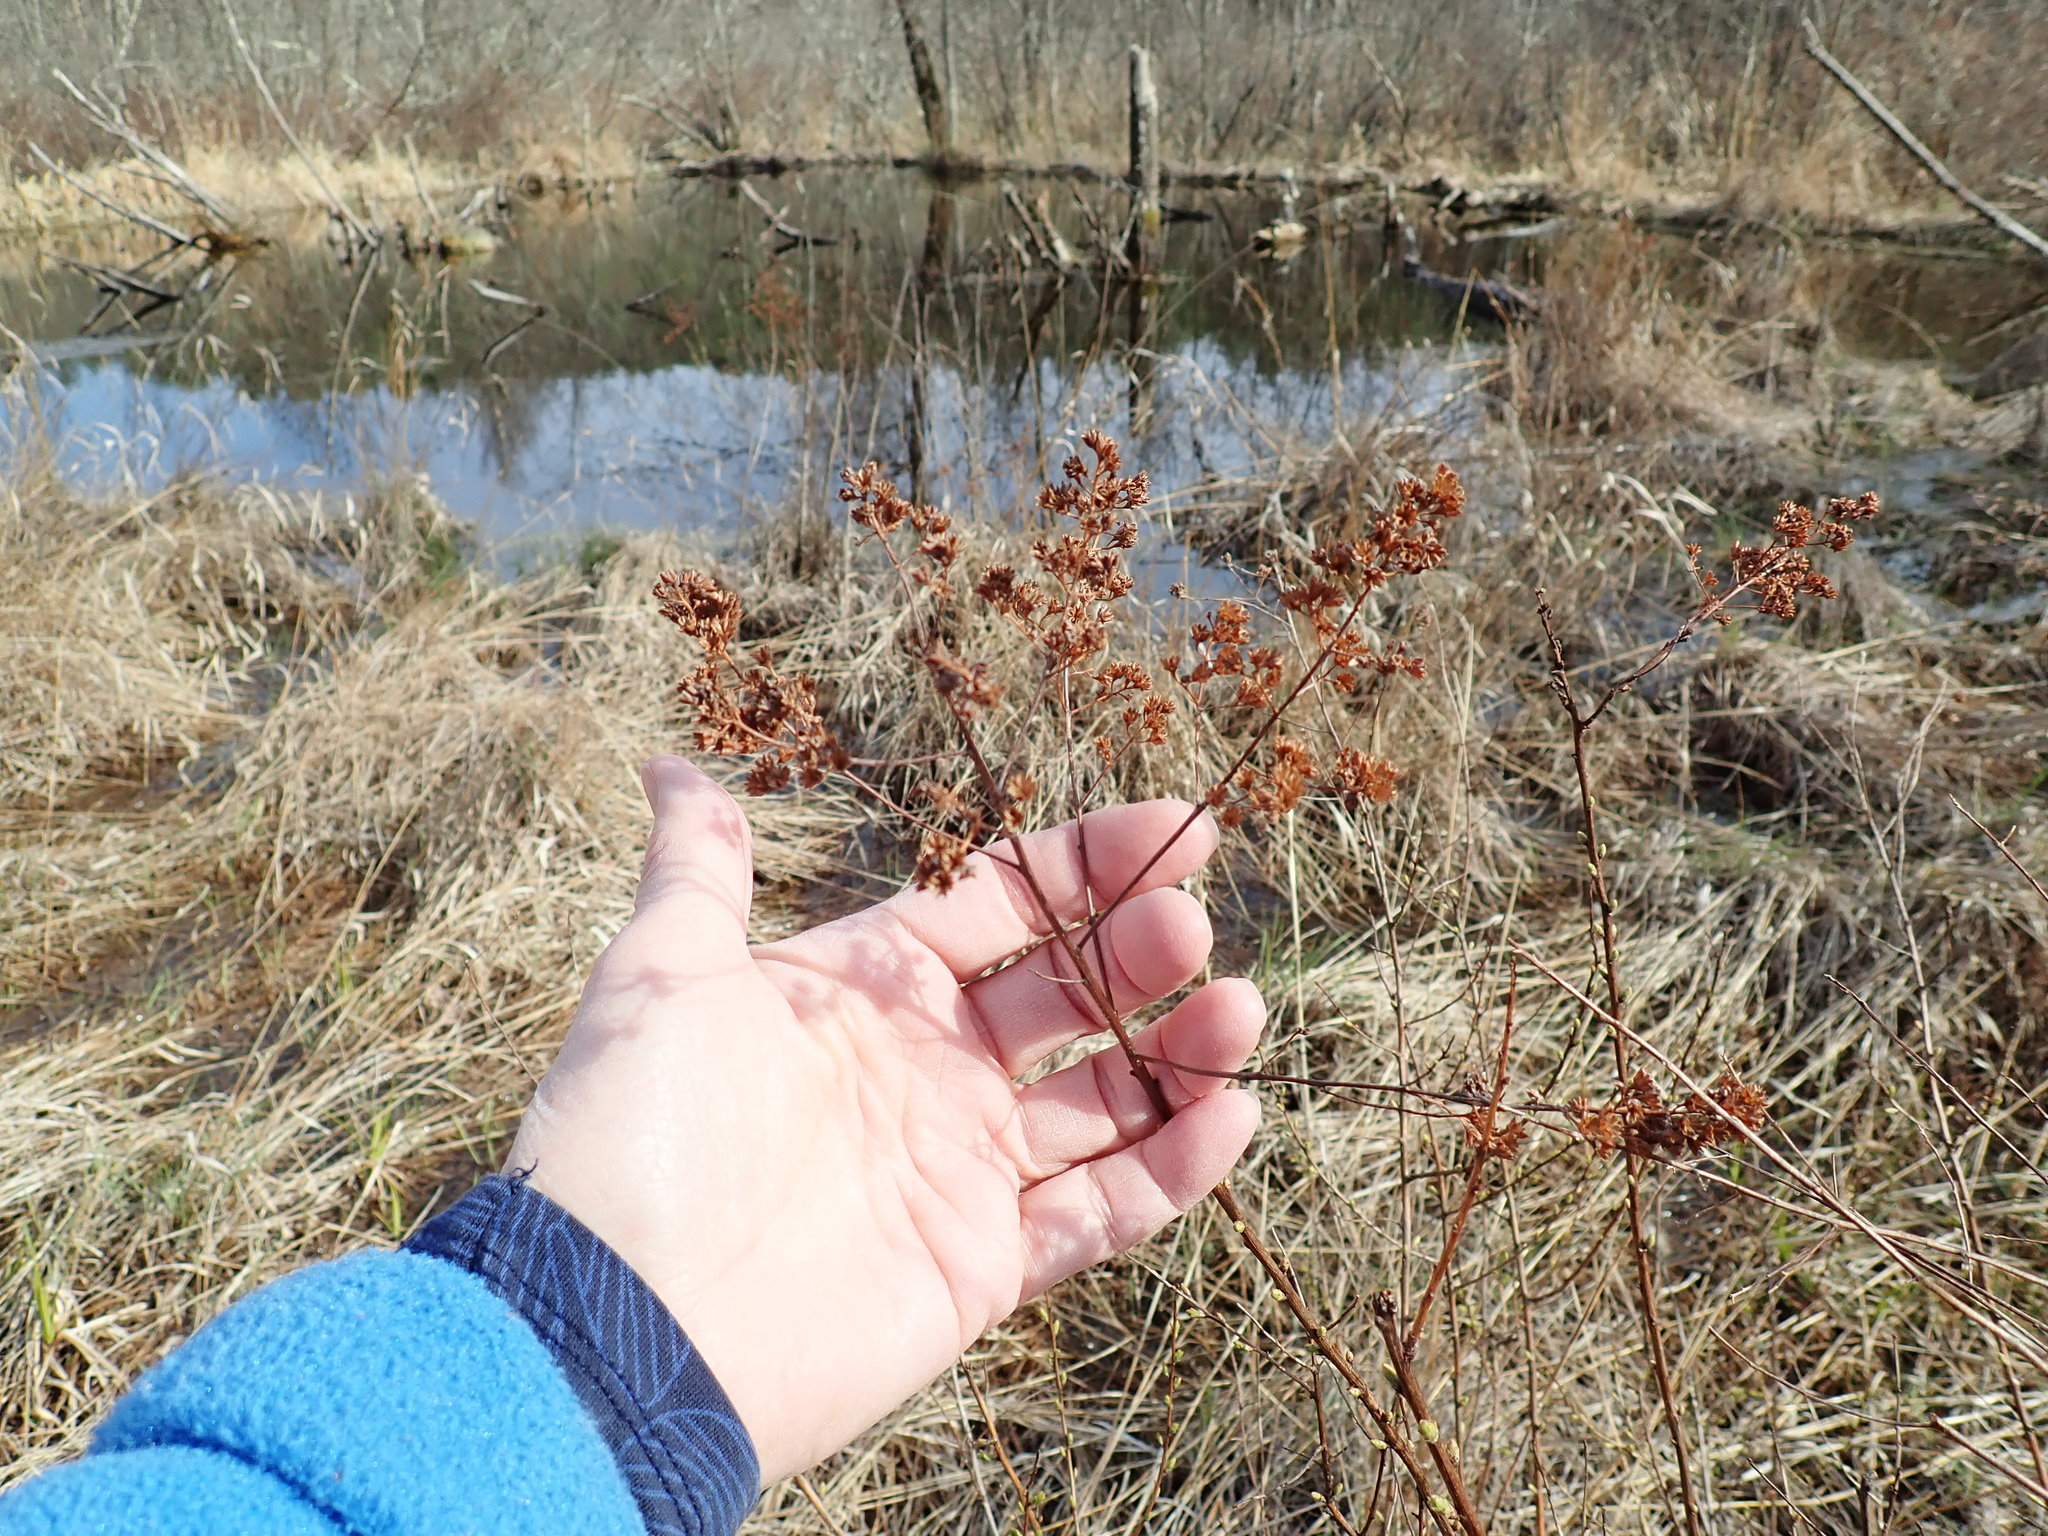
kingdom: Plantae
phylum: Tracheophyta
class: Magnoliopsida
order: Rosales
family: Rosaceae
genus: Spiraea
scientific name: Spiraea alba
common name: Pale bridewort
